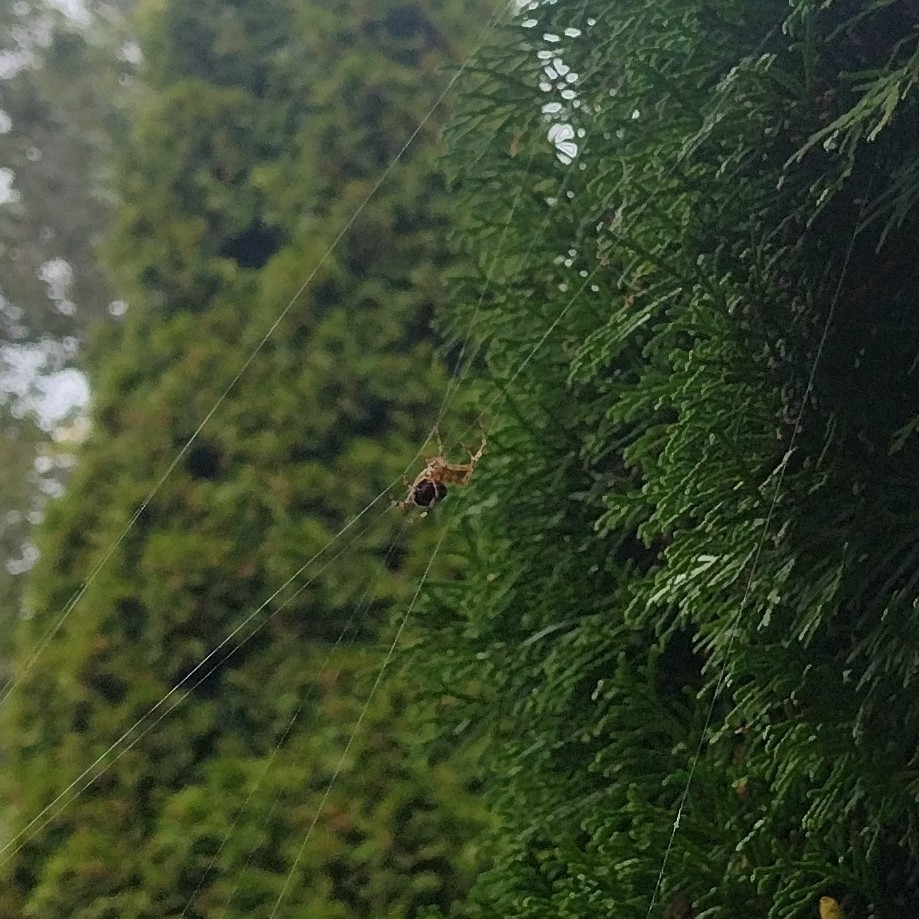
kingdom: Animalia
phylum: Arthropoda
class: Arachnida
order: Araneae
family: Araneidae
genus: Araneus
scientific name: Araneus diadematus
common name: Cross orbweaver
